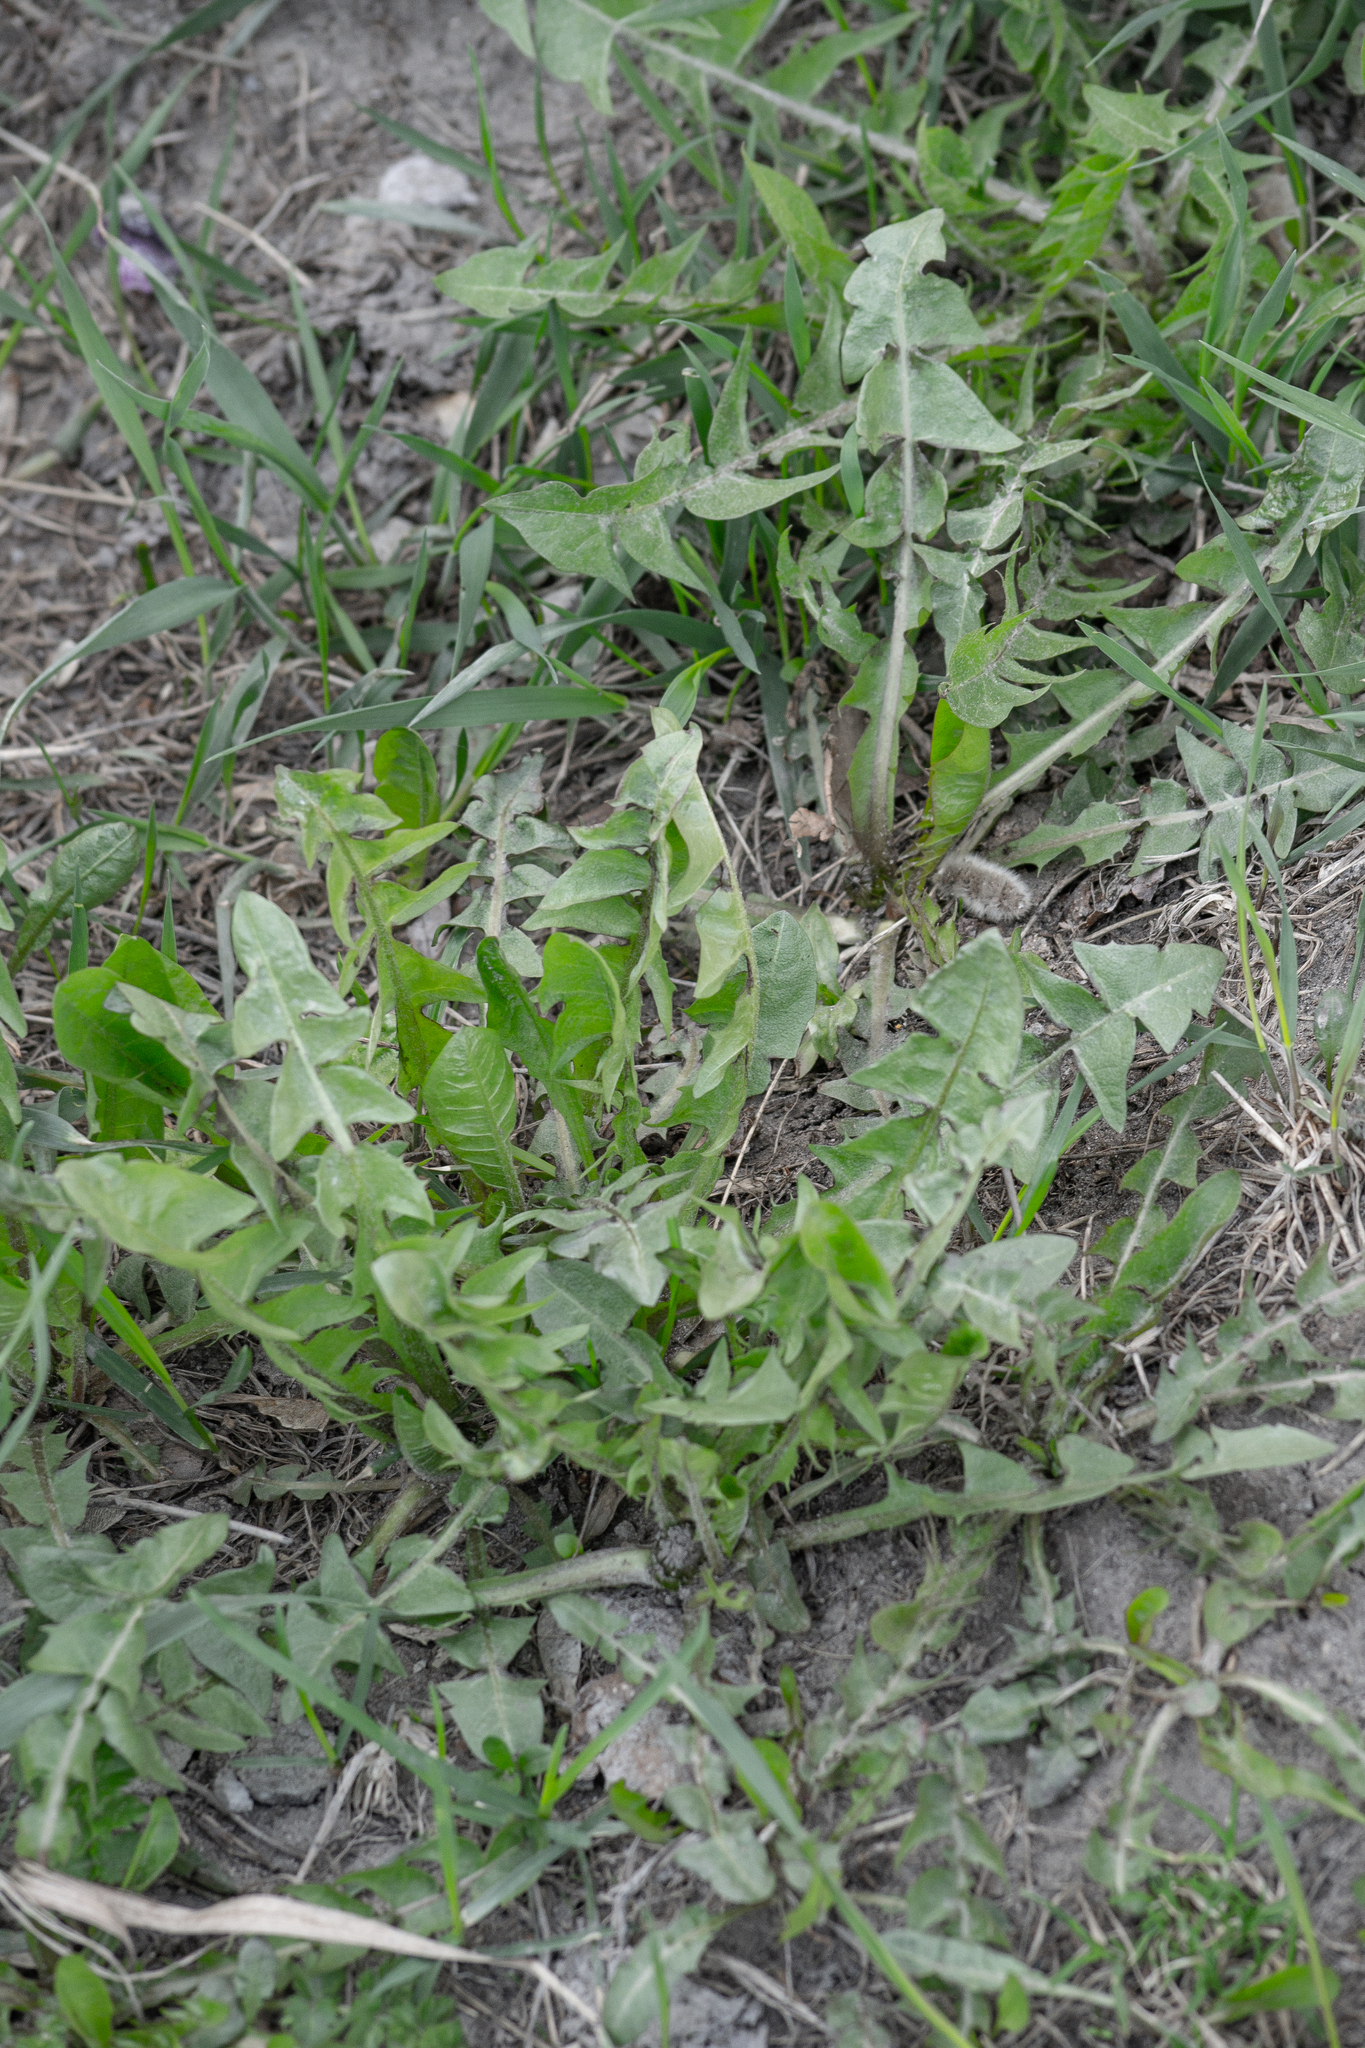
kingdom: Plantae
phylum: Tracheophyta
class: Magnoliopsida
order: Asterales
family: Asteraceae
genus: Taraxacum
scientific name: Taraxacum officinale
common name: Common dandelion
